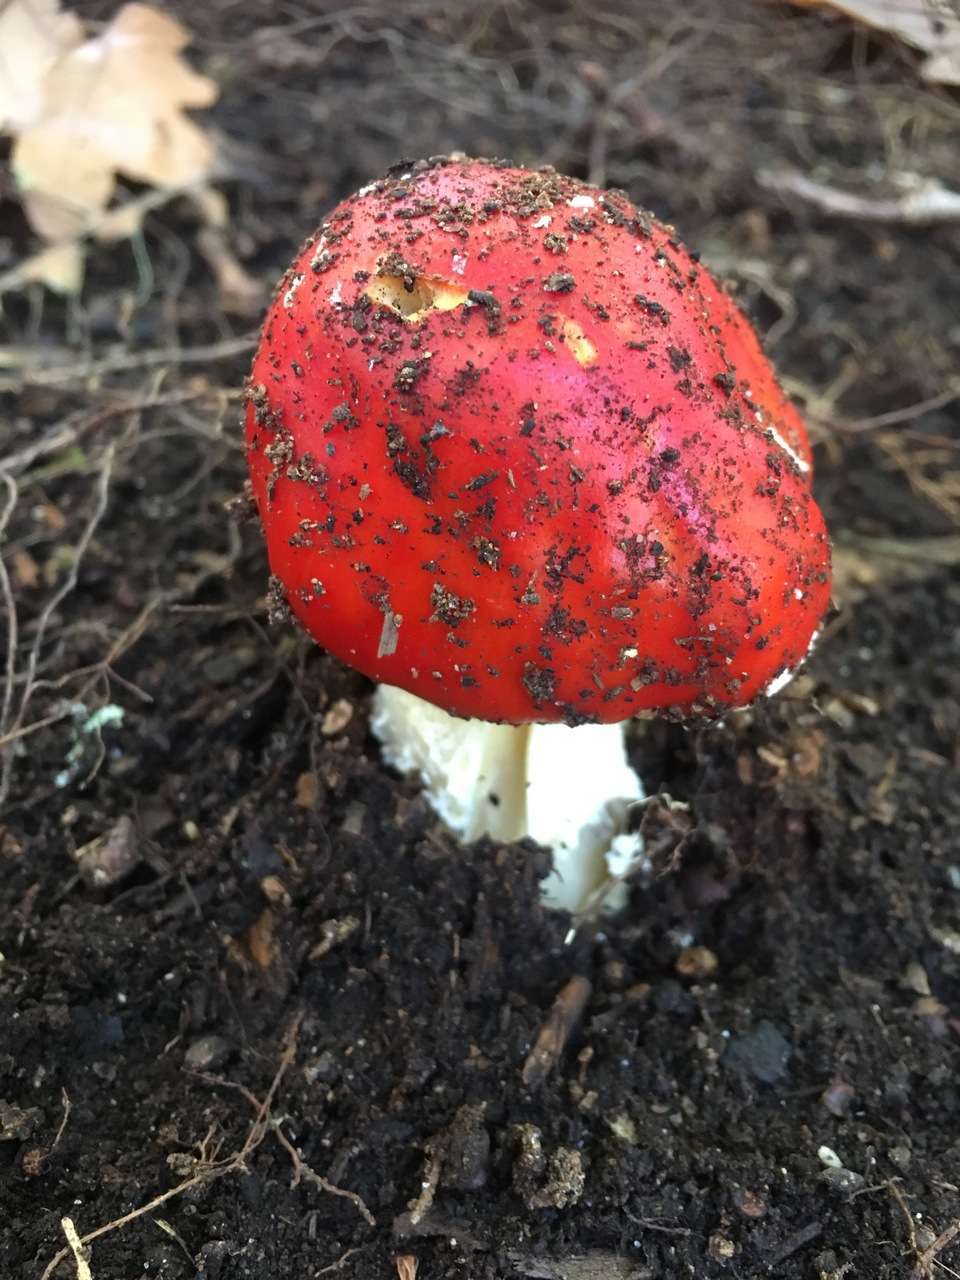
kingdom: Fungi
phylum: Basidiomycota
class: Agaricomycetes
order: Agaricales
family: Amanitaceae
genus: Amanita
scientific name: Amanita muscaria
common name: Fly agaric
